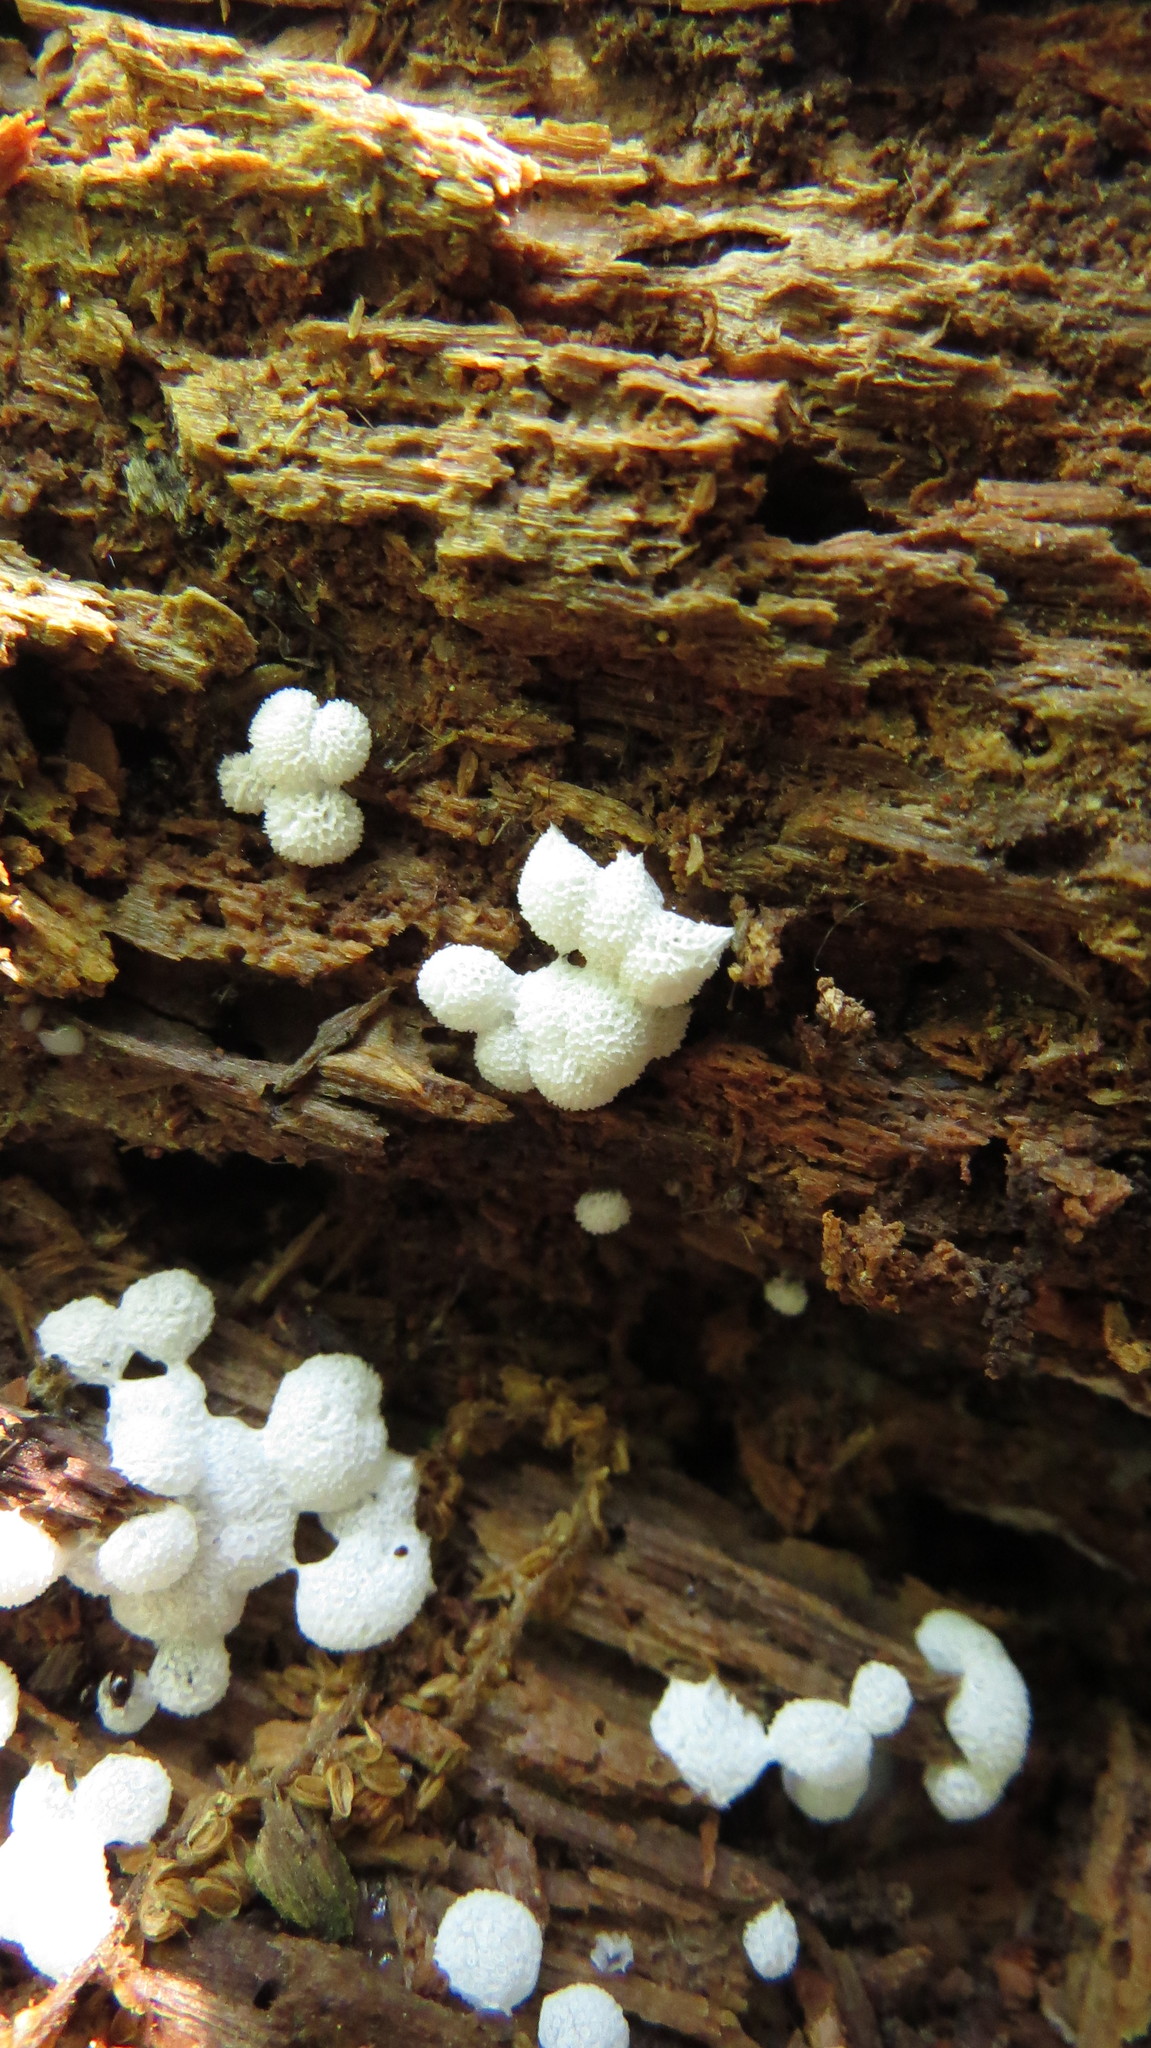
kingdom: Protozoa
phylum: Mycetozoa
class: Protosteliomycetes
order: Ceratiomyxales
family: Ceratiomyxaceae
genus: Ceratiomyxa
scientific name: Ceratiomyxa fruticulosa
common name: Honeycomb coral slime mold
